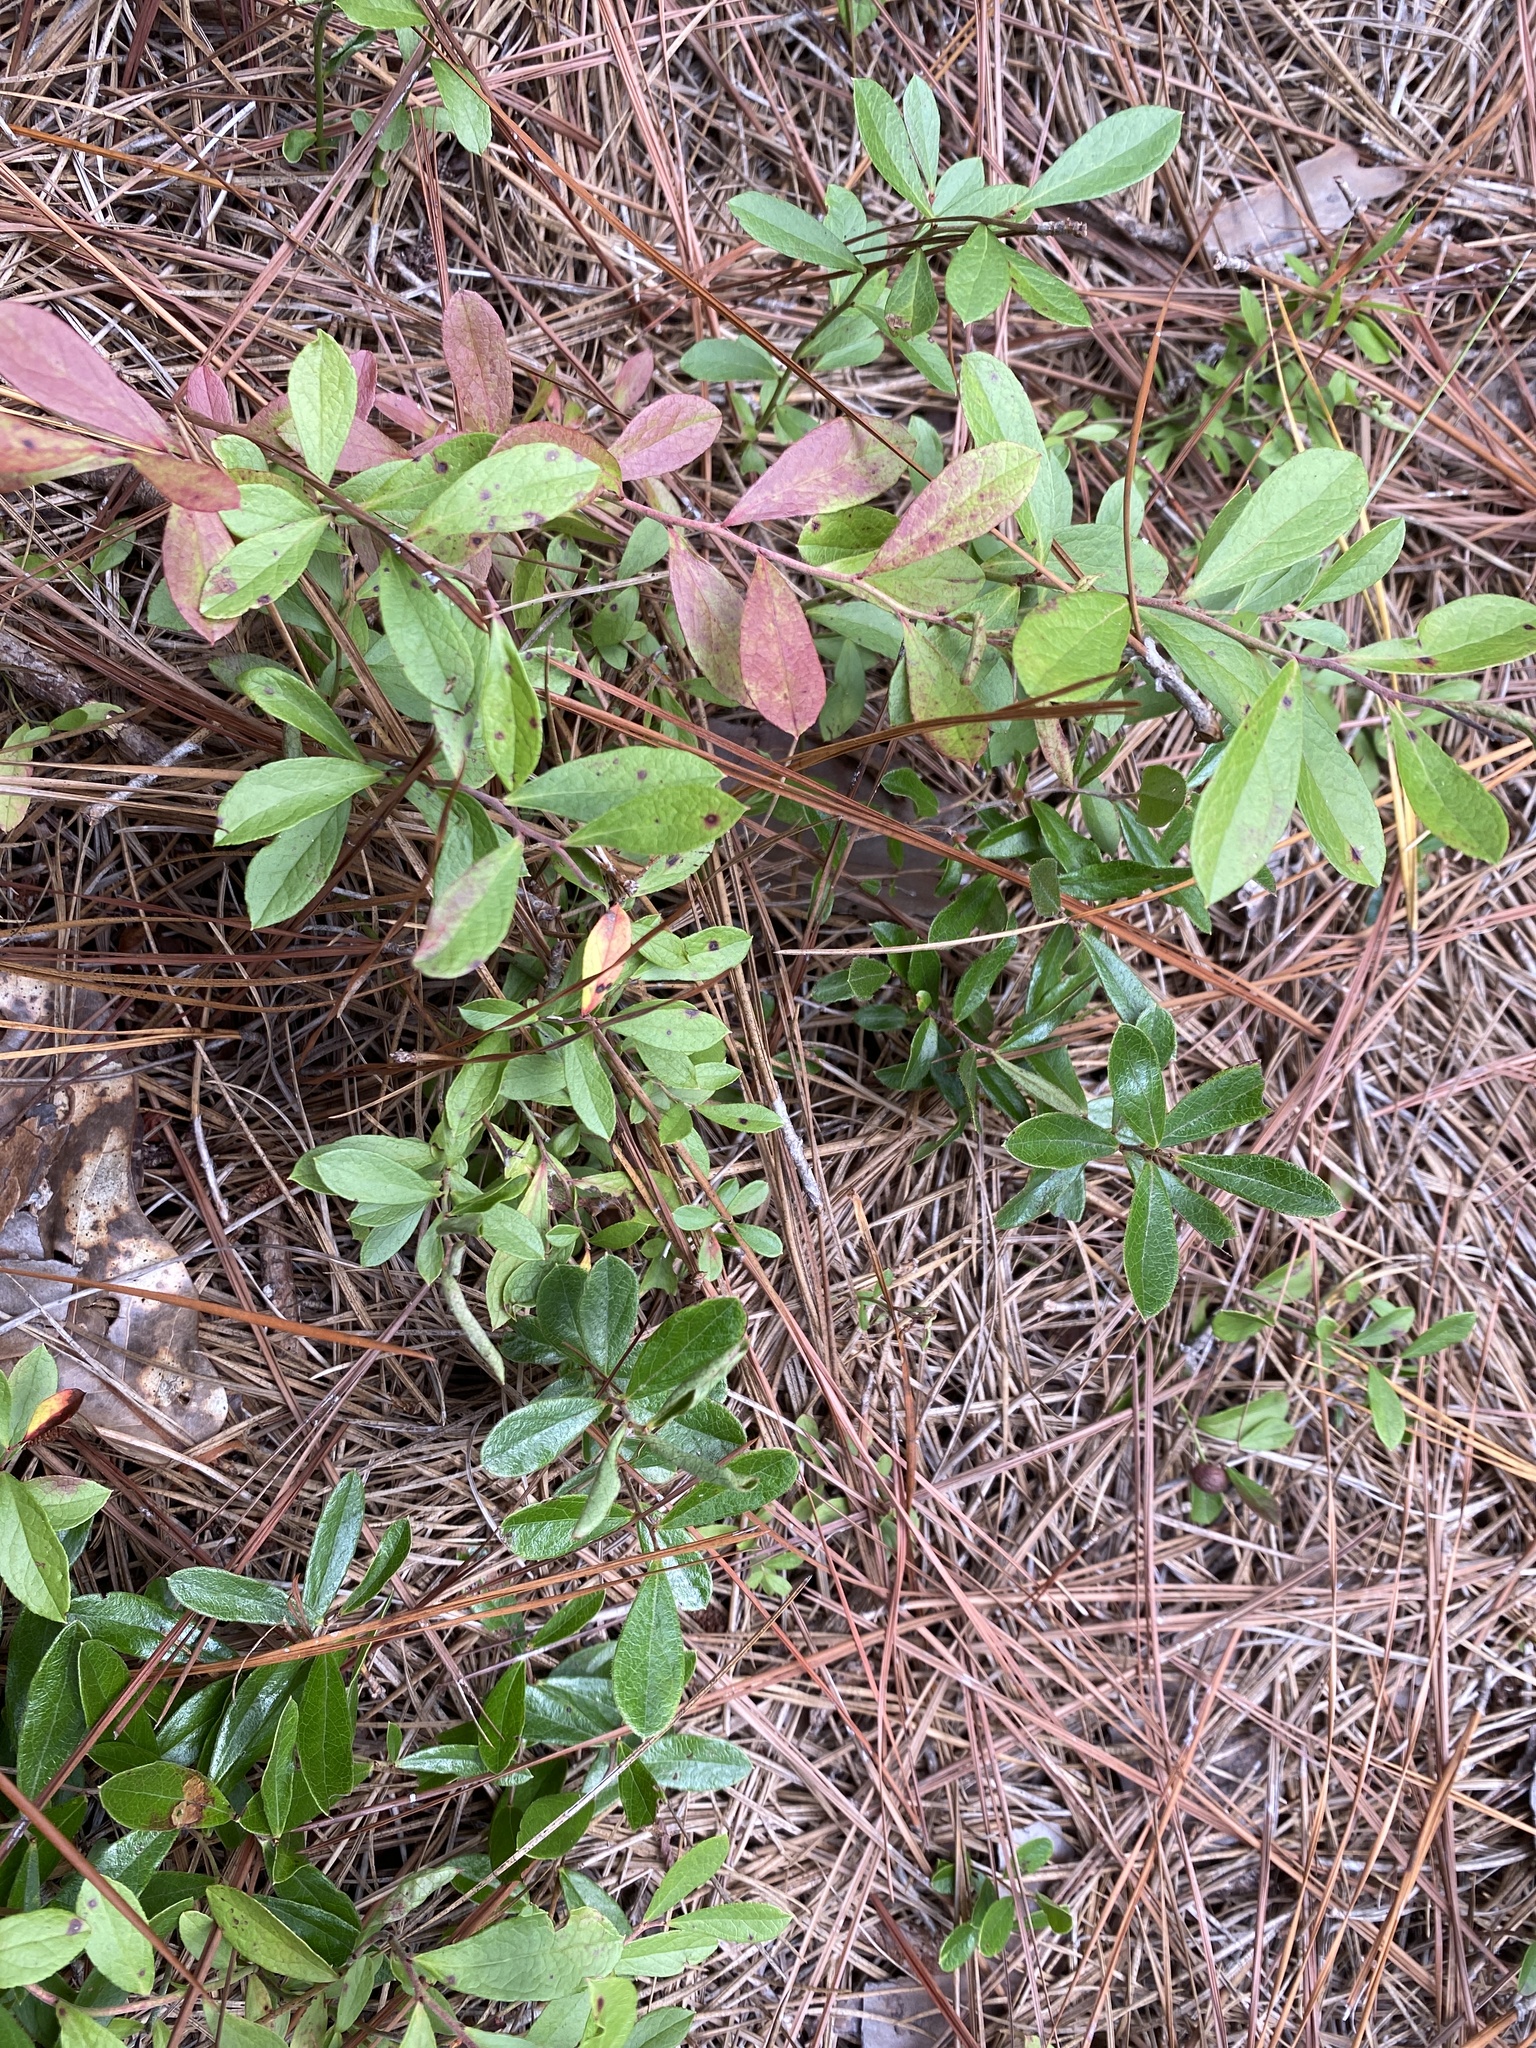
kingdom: Plantae
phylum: Tracheophyta
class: Magnoliopsida
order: Ericales
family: Ericaceae
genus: Vaccinium
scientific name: Vaccinium tenellum
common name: Southern blueberry
